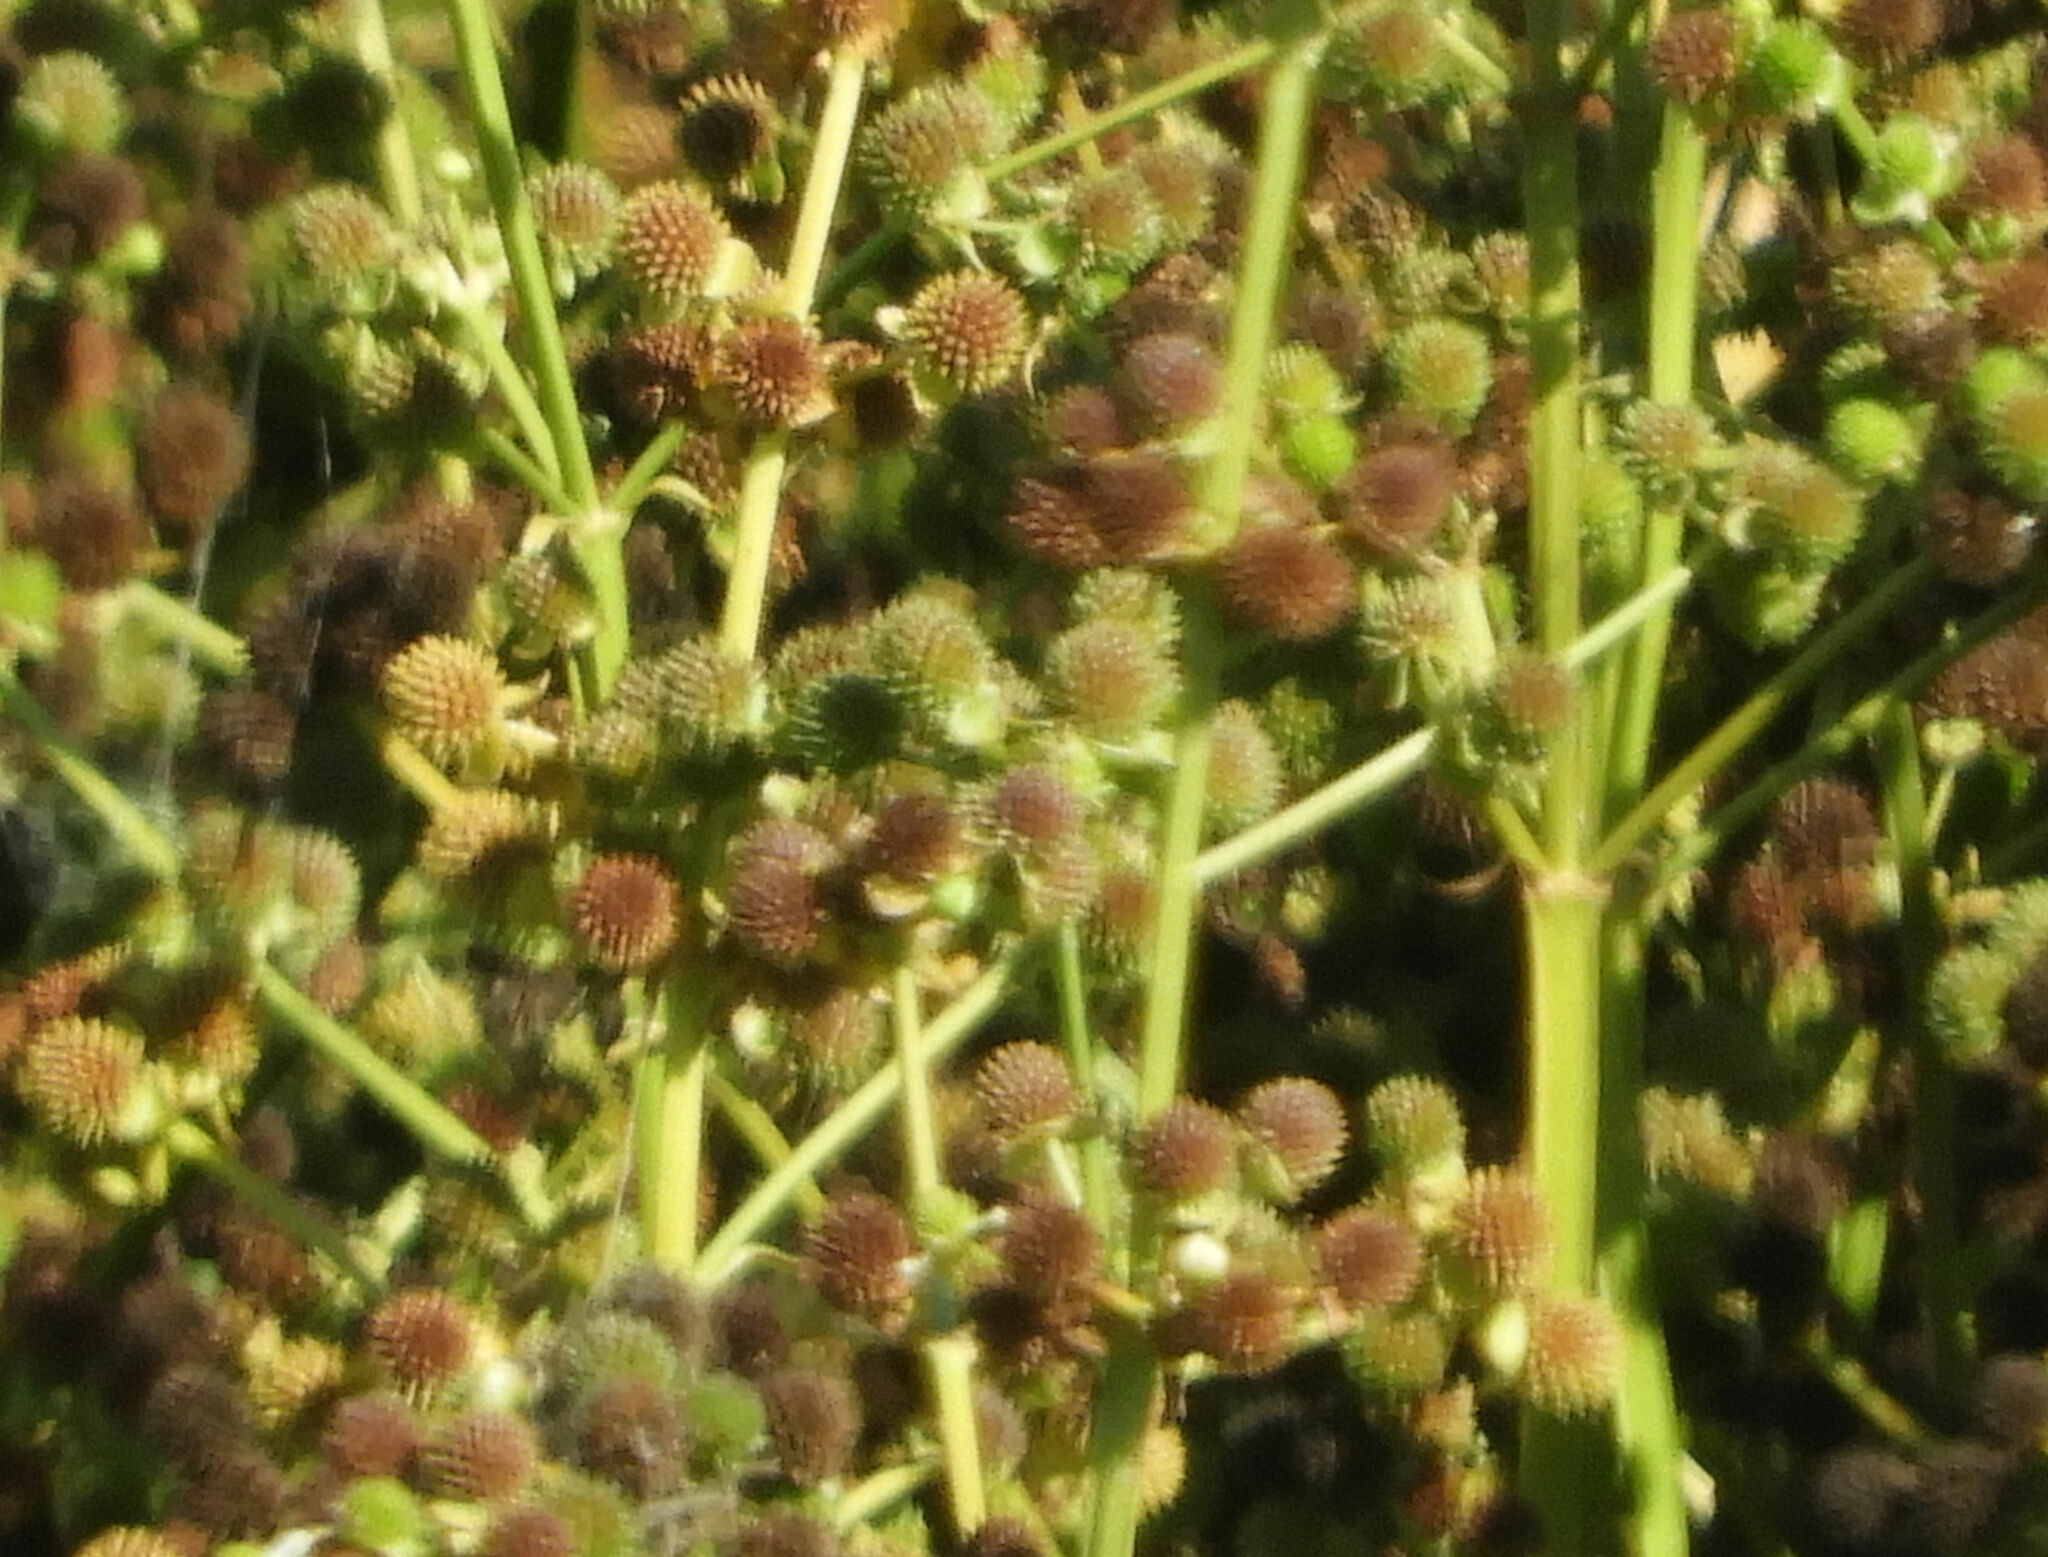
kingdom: Plantae
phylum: Tracheophyta
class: Liliopsida
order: Alismatales
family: Alismataceae
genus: Echinodorus
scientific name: Echinodorus berteroi
